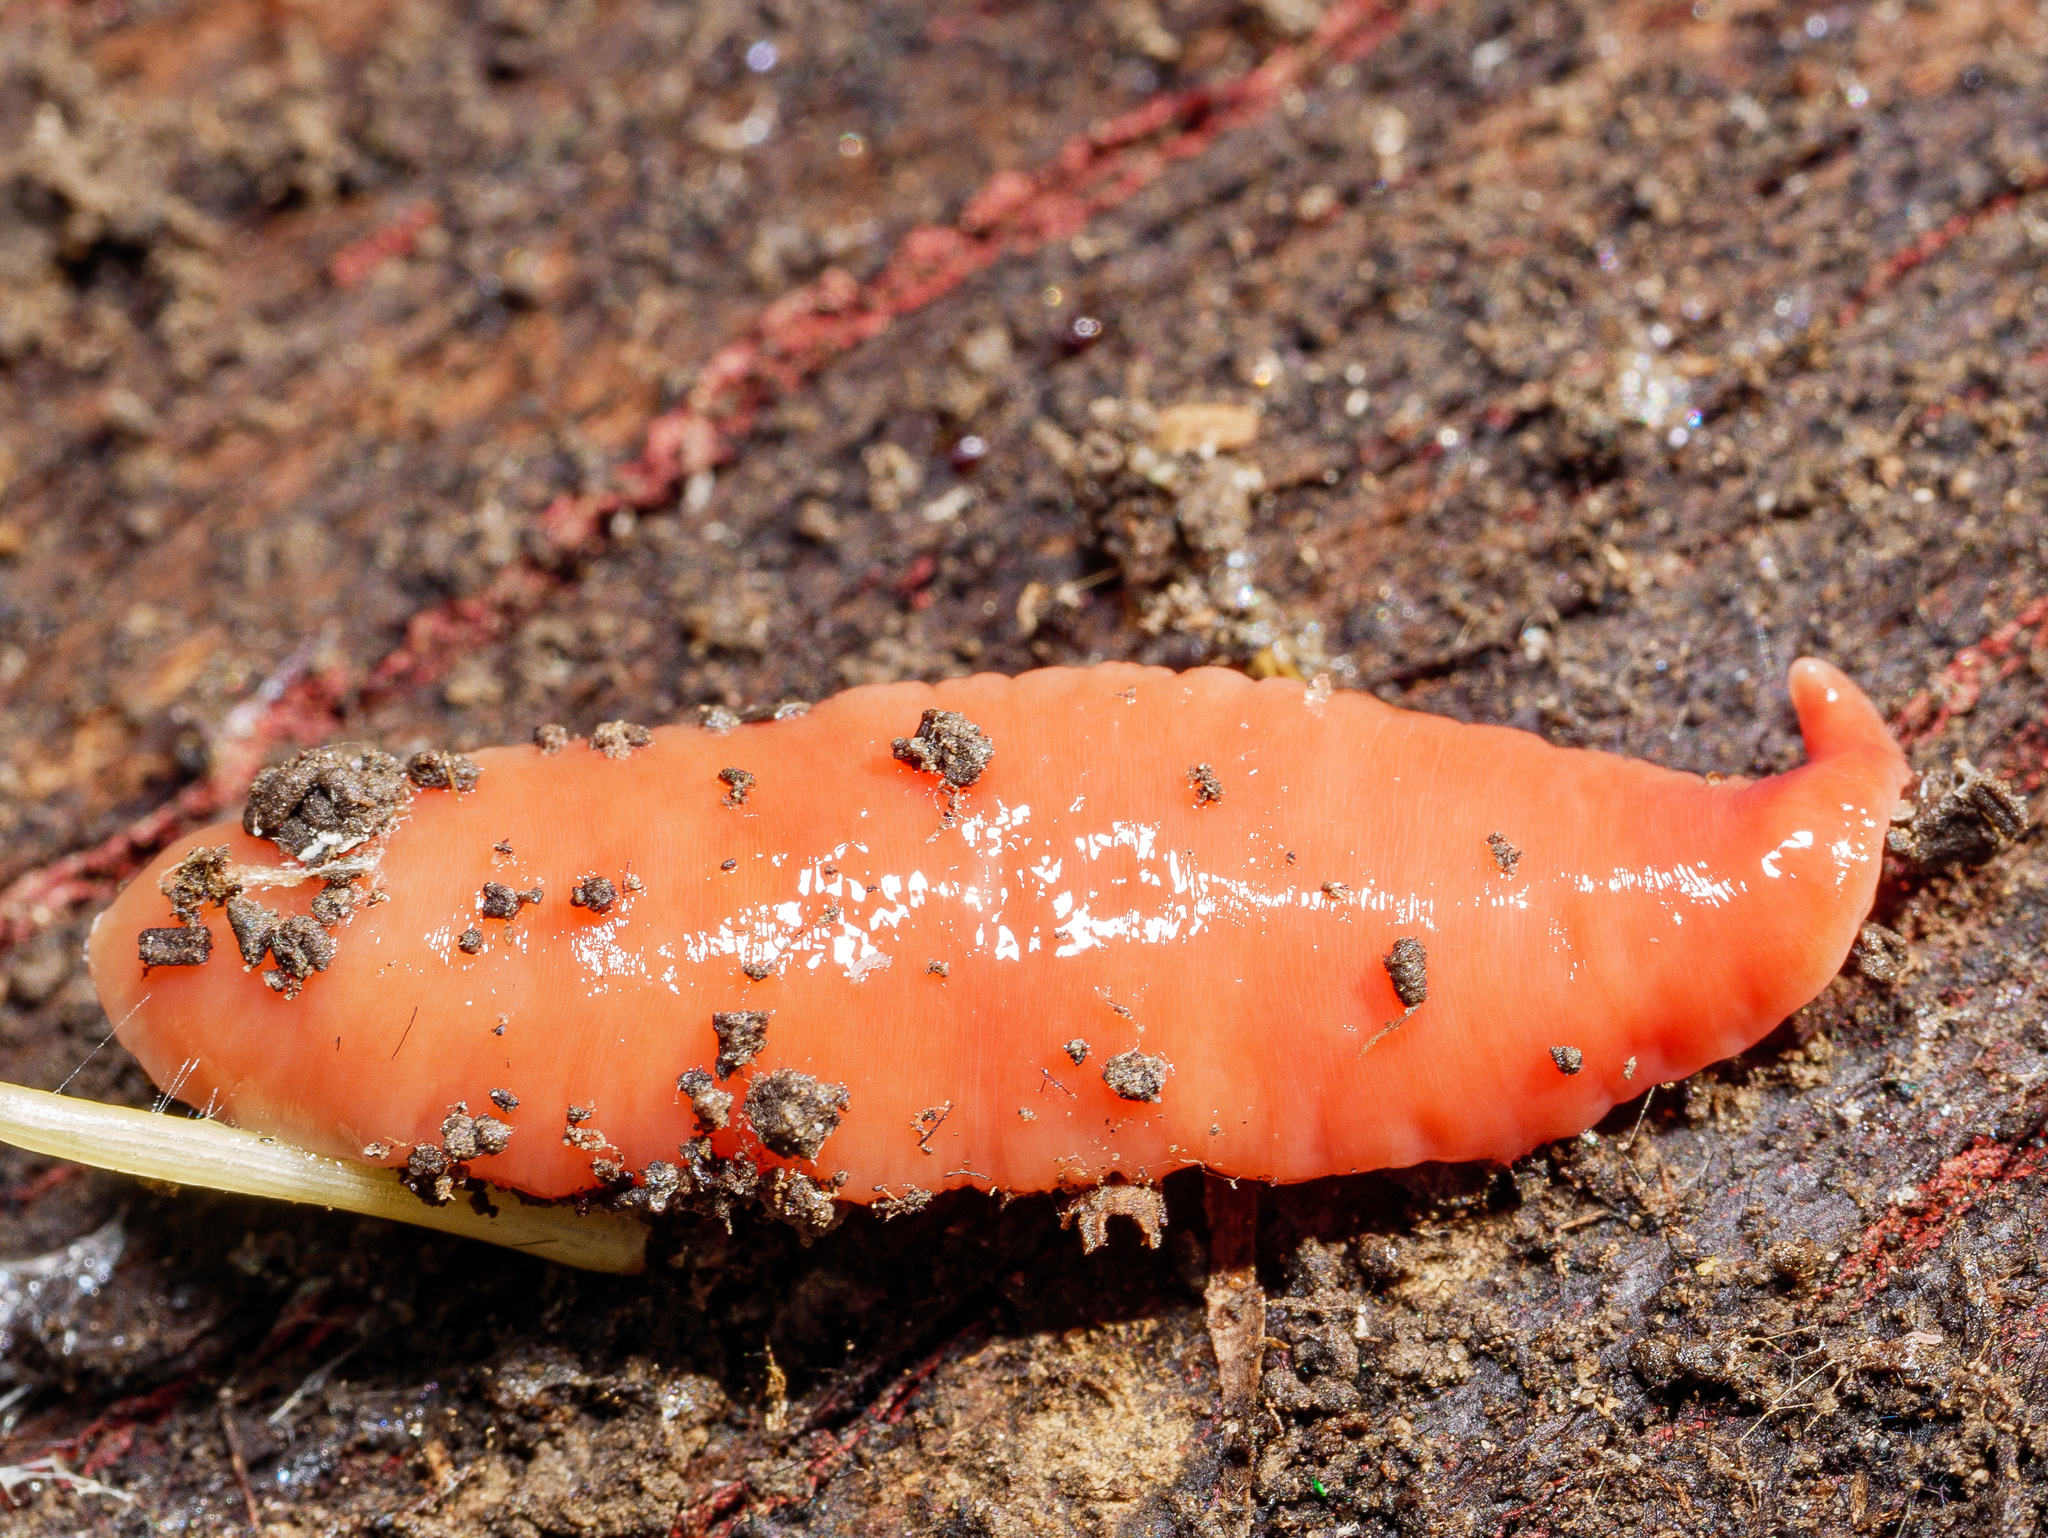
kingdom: Animalia
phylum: Platyhelminthes
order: Tricladida
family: Geoplanidae
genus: Australoplana
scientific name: Australoplana sanguinea
